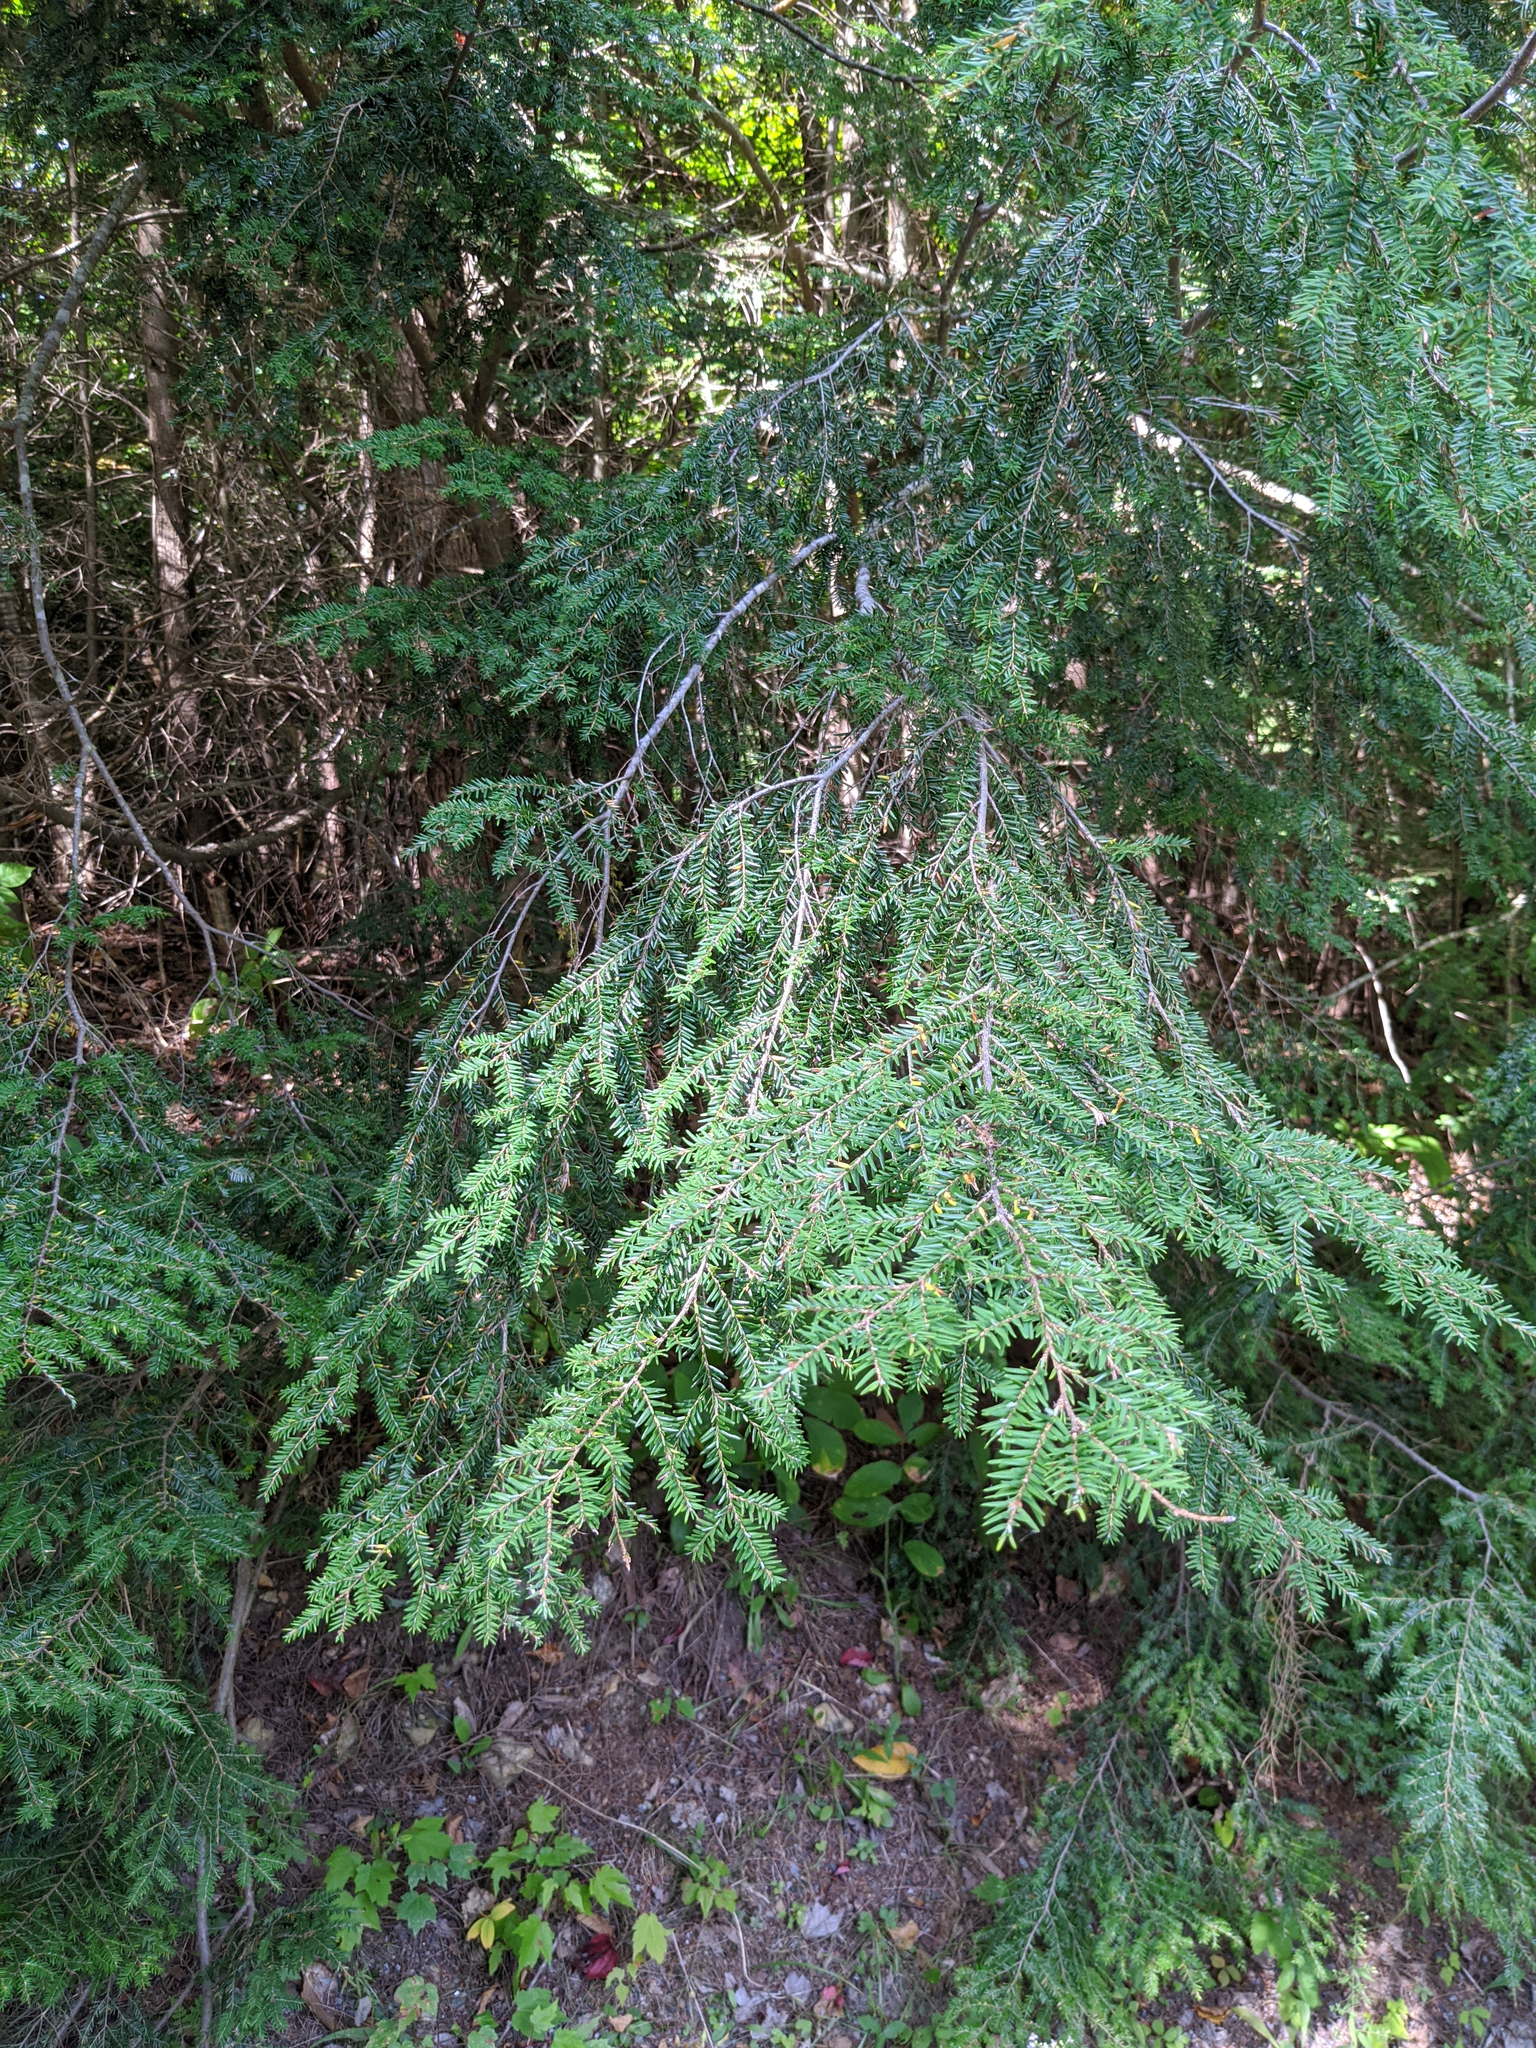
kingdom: Plantae
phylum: Tracheophyta
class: Pinopsida
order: Pinales
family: Pinaceae
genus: Tsuga
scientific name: Tsuga canadensis
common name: Eastern hemlock
